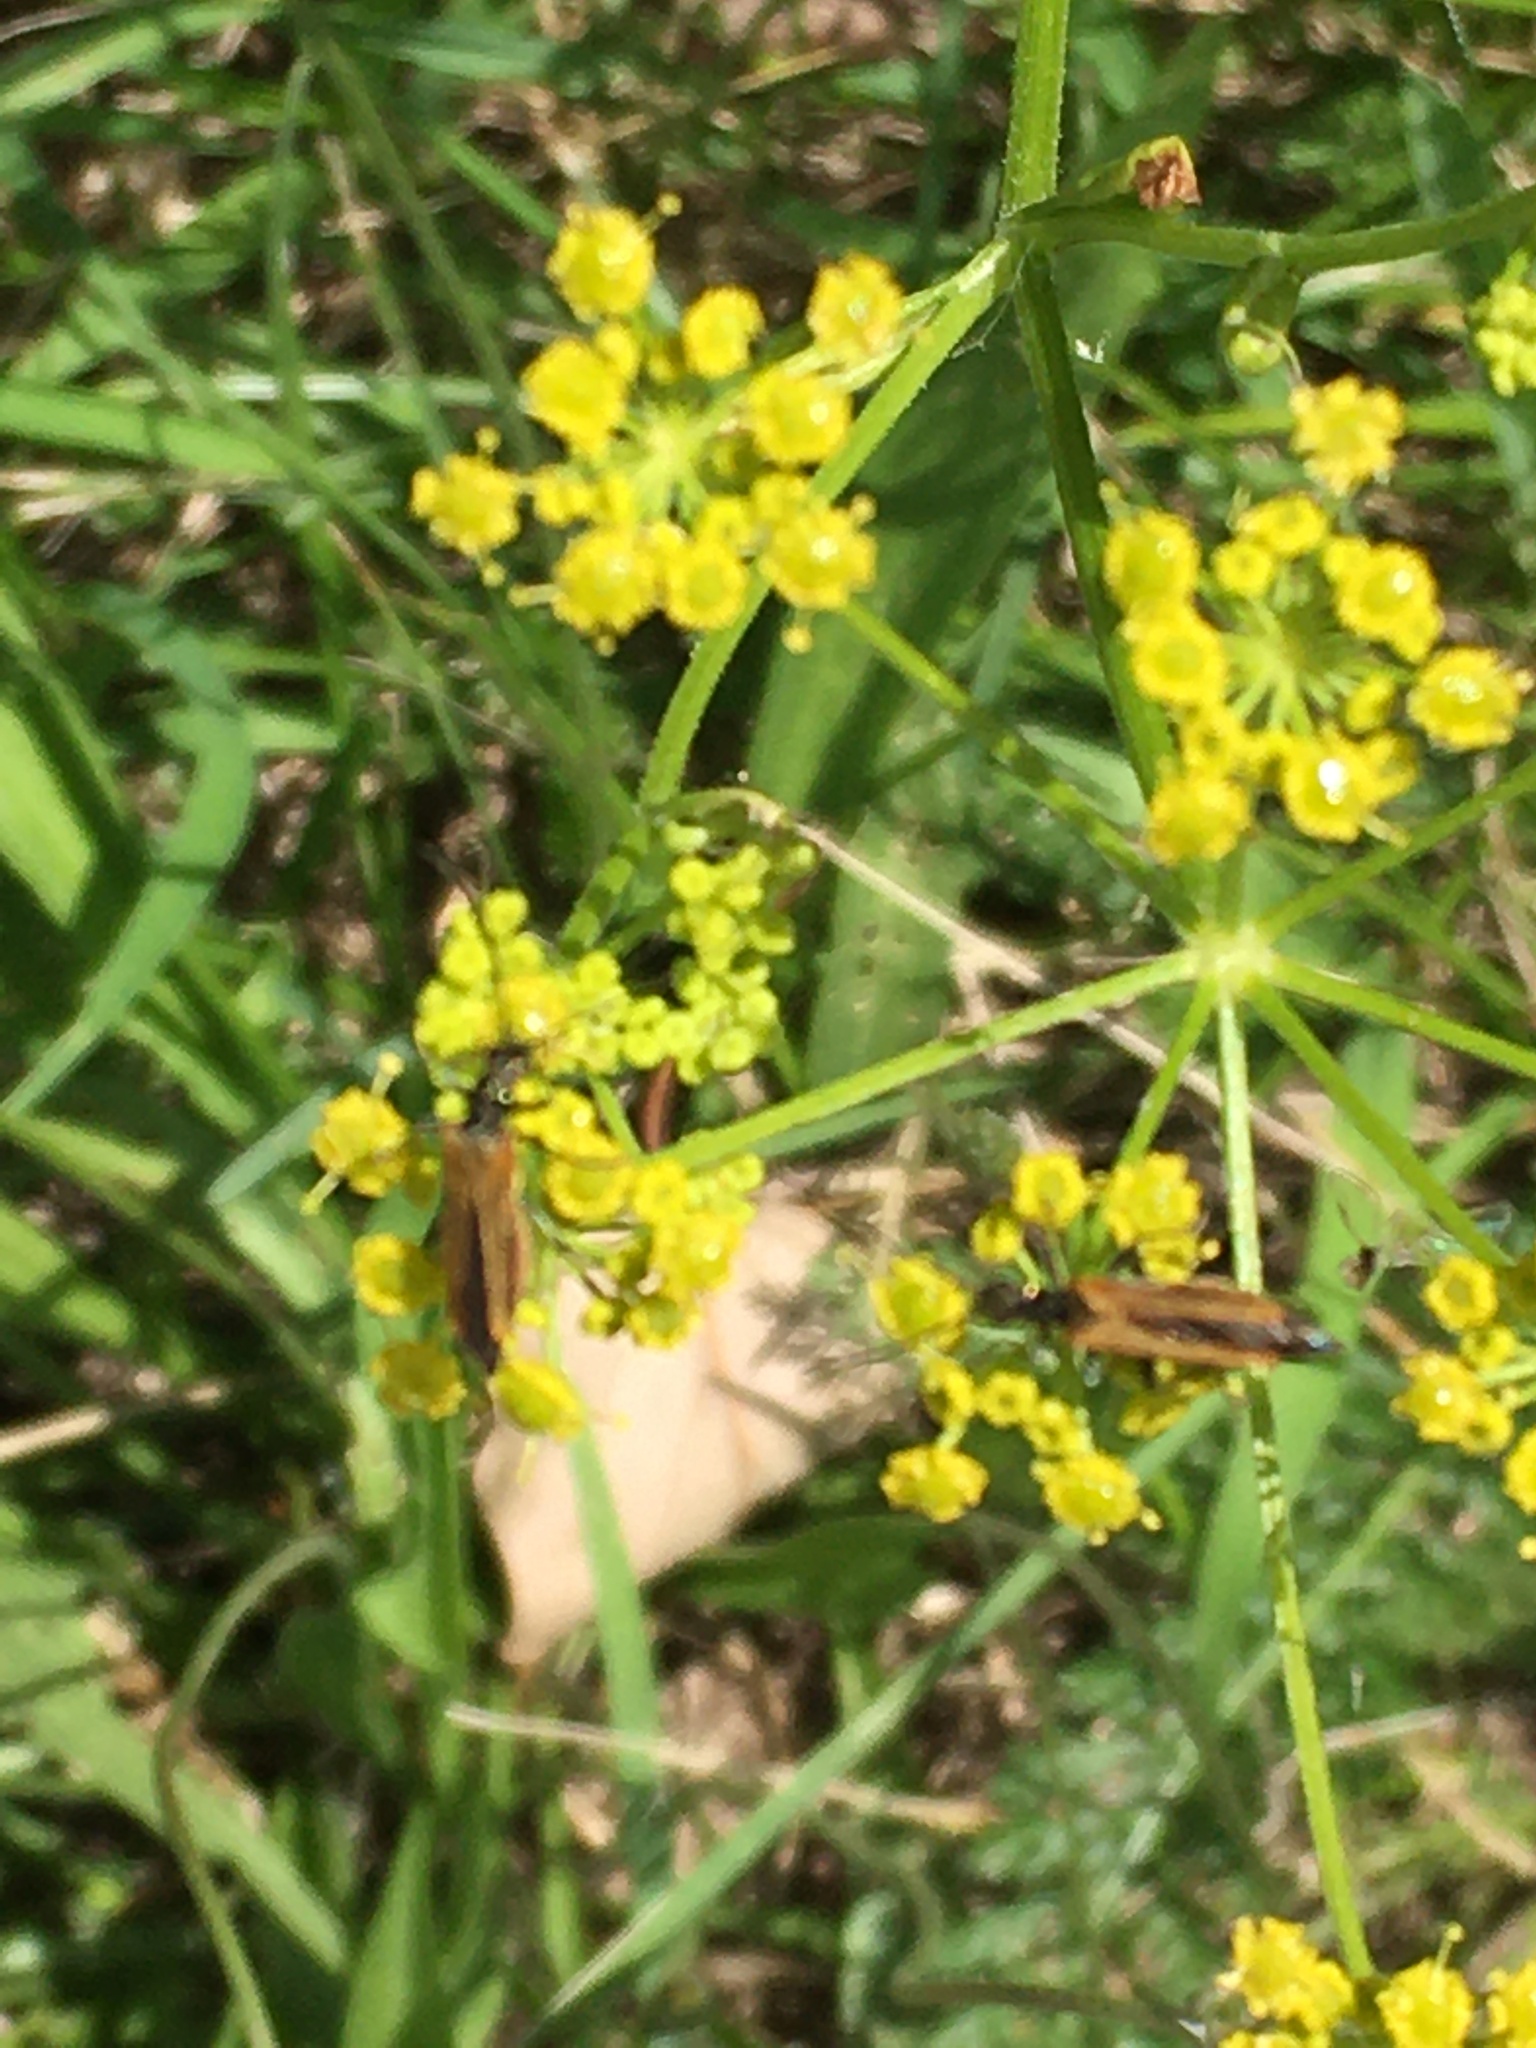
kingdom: Animalia
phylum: Arthropoda
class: Insecta
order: Coleoptera
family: Oedemeridae
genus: Oedemera
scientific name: Oedemera femorata
